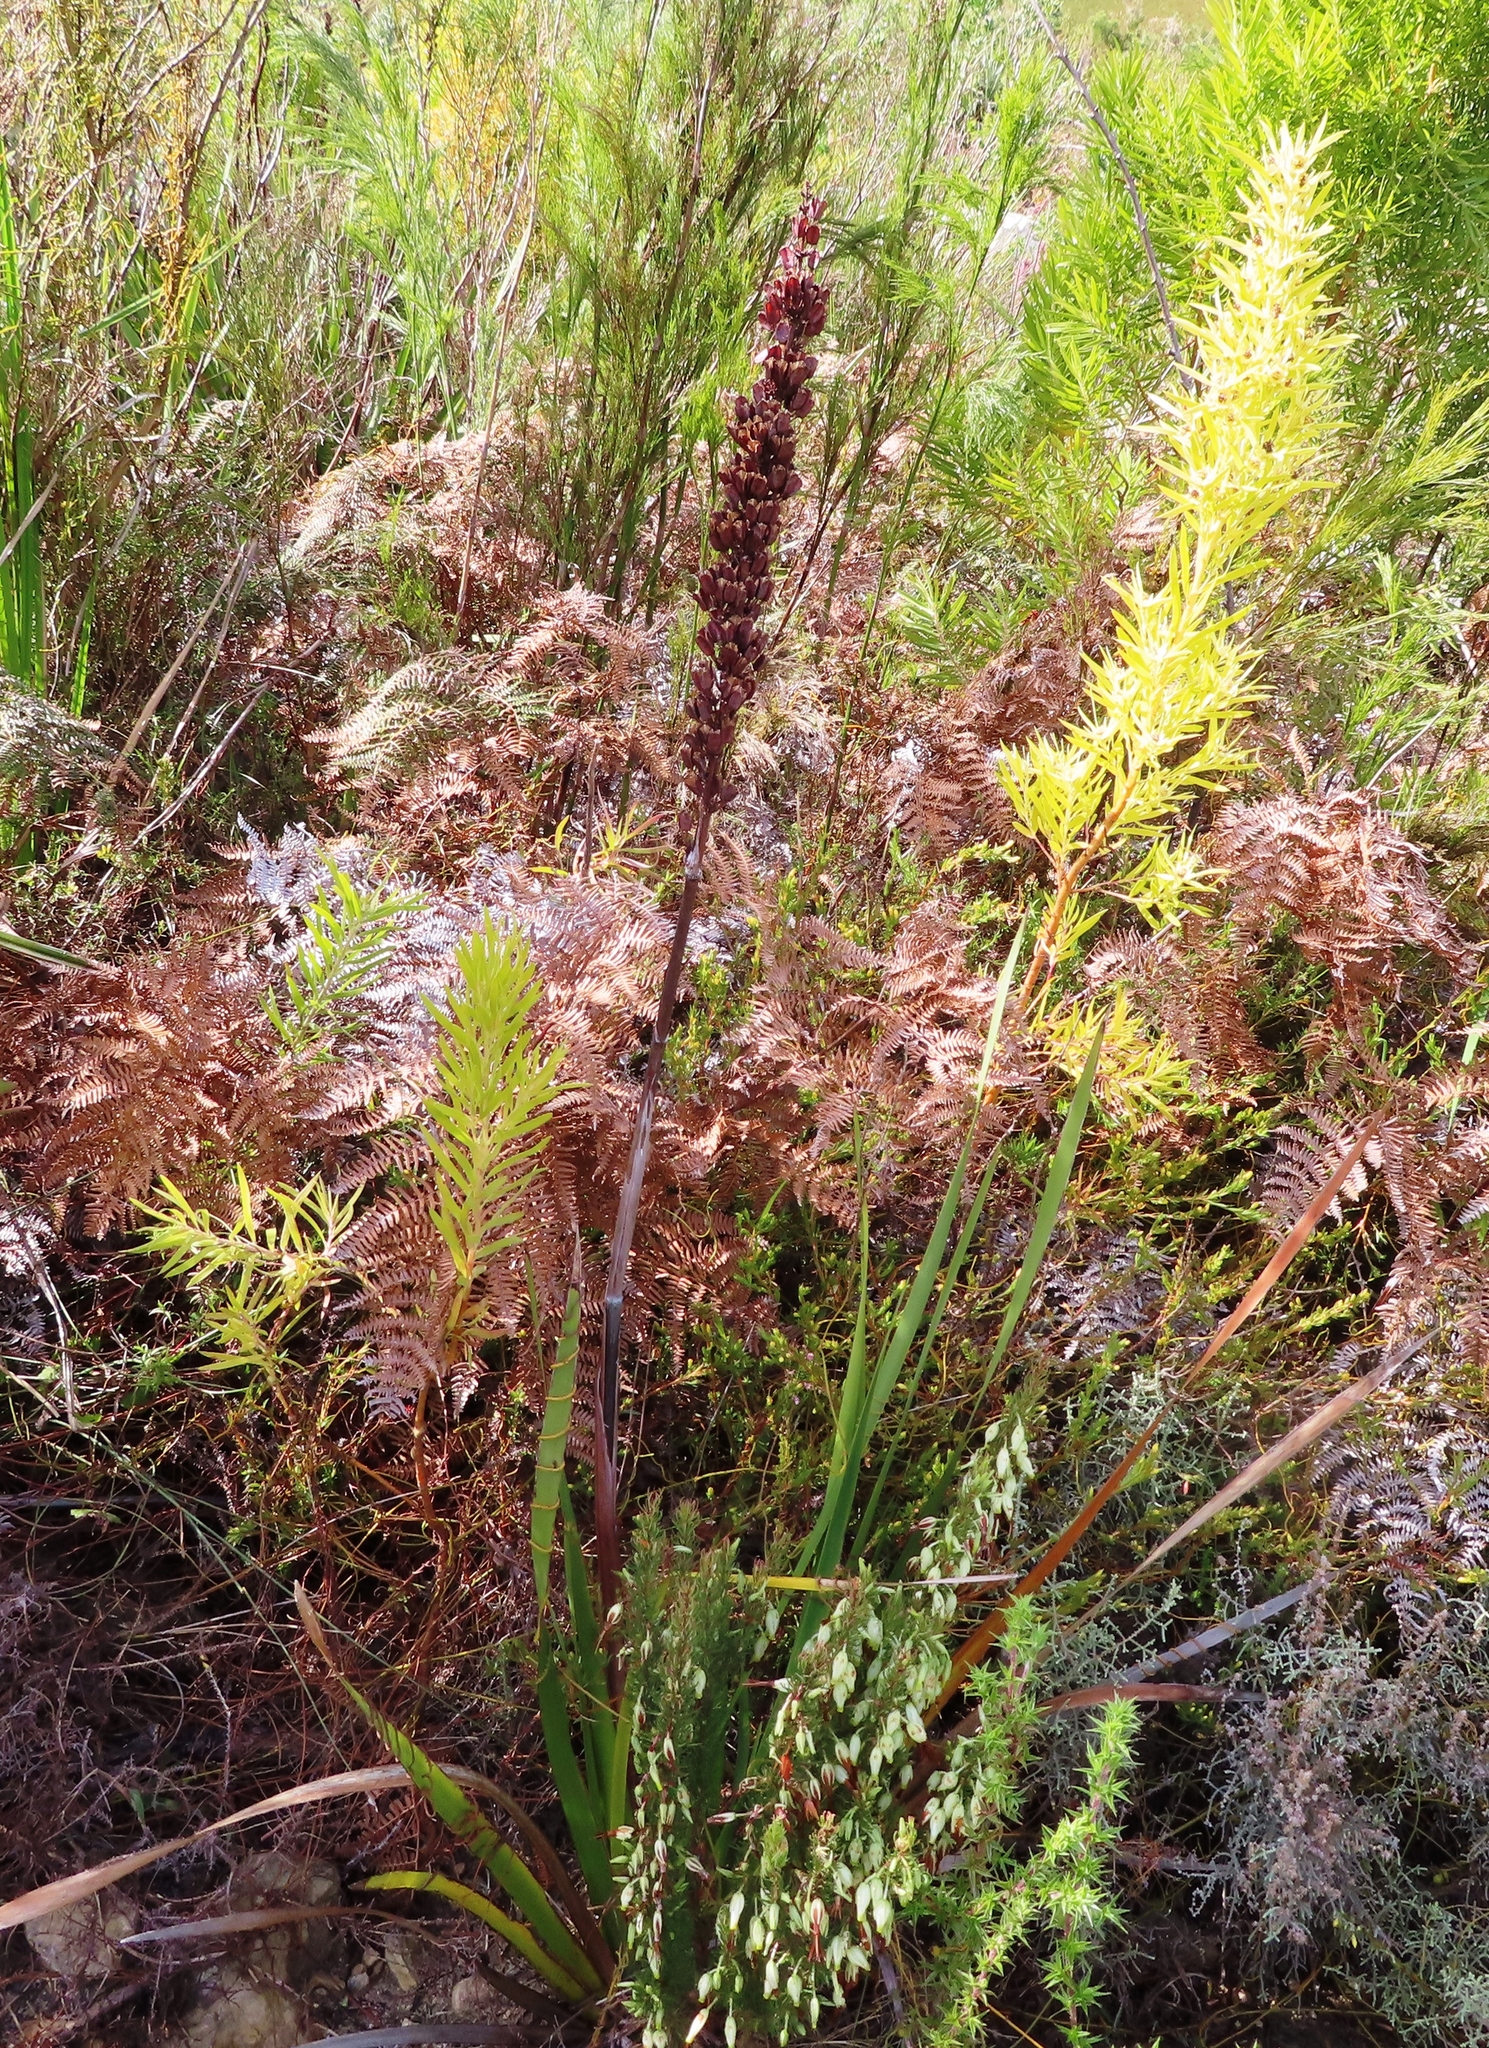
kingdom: Plantae
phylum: Tracheophyta
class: Liliopsida
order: Asparagales
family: Iridaceae
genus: Aristea
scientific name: Aristea capitata
